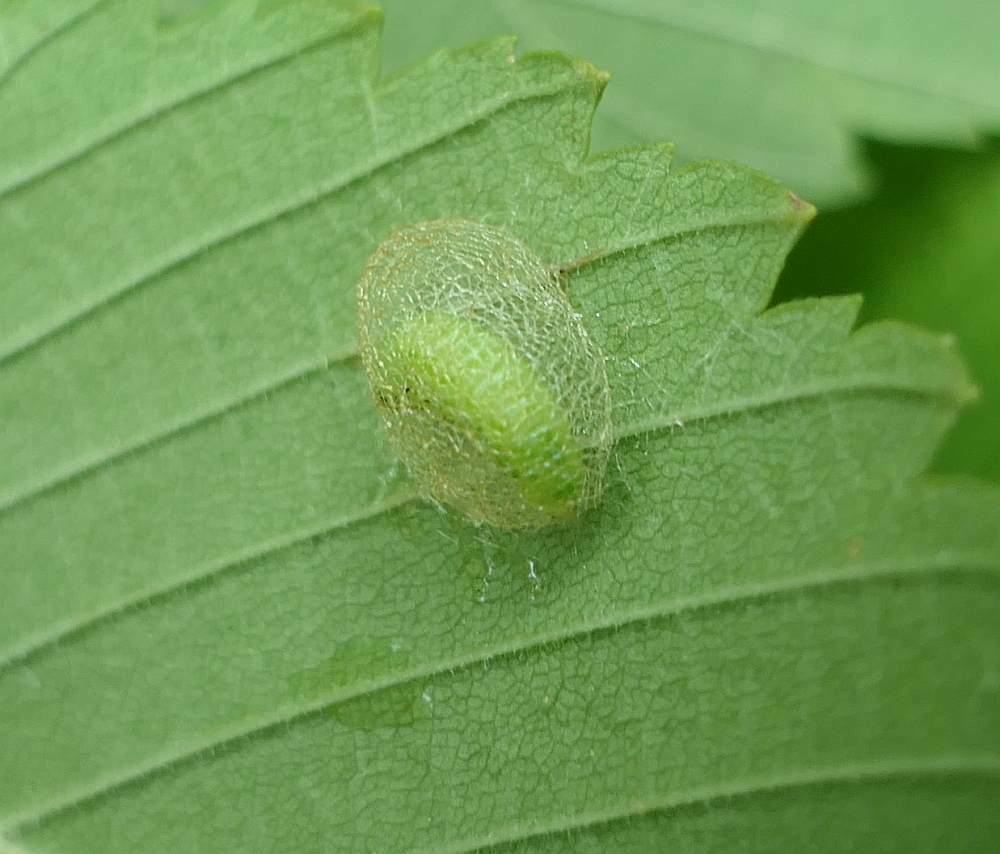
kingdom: Animalia
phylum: Arthropoda
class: Insecta
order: Hymenoptera
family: Argidae
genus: Aproceros
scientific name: Aproceros leucopoda
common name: Zig-zag elm sawfly
